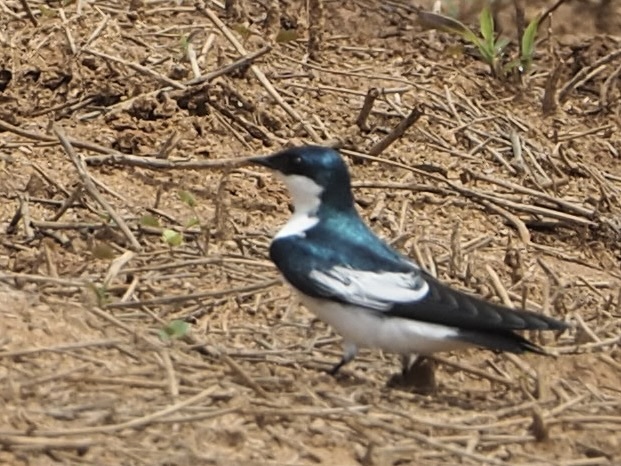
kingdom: Animalia
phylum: Chordata
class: Aves
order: Passeriformes
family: Hirundinidae
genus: Tachycineta
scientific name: Tachycineta albiventer
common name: White-winged swallow
